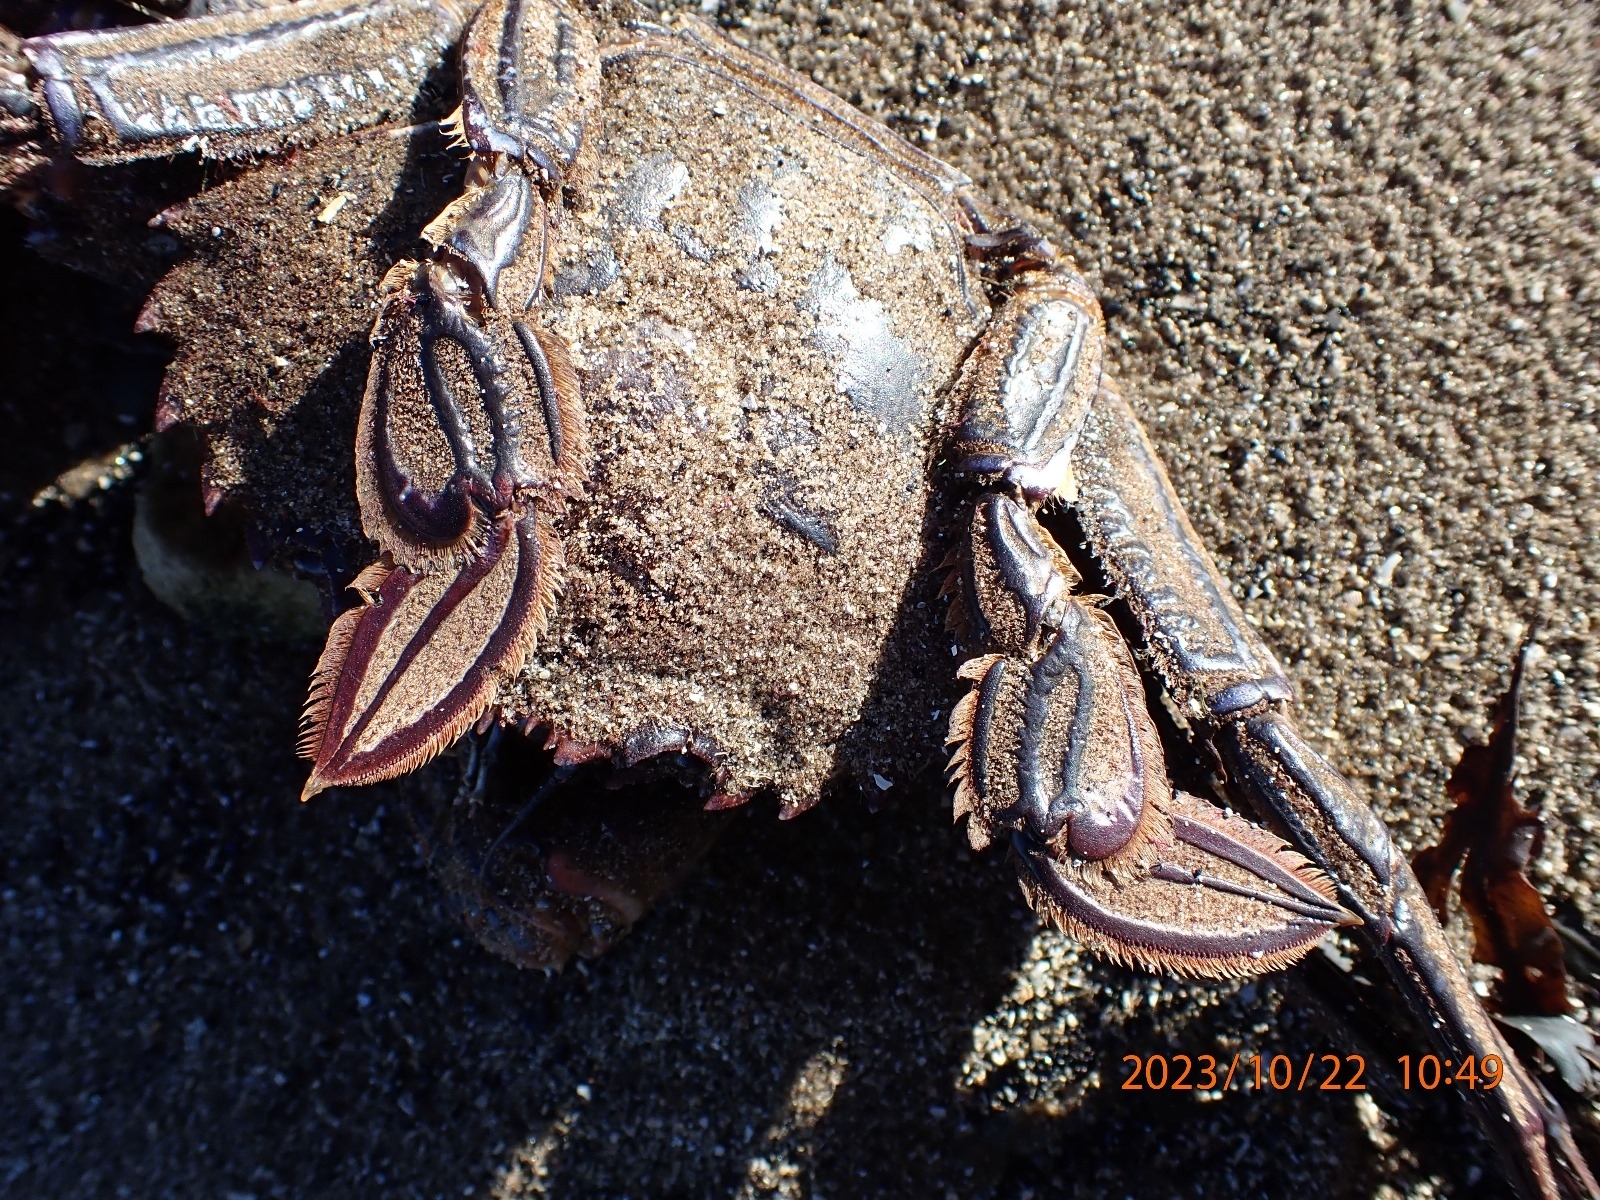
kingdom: Animalia
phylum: Arthropoda
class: Malacostraca
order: Decapoda
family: Polybiidae
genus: Necora
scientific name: Necora puber
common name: Velvet swimming crab
